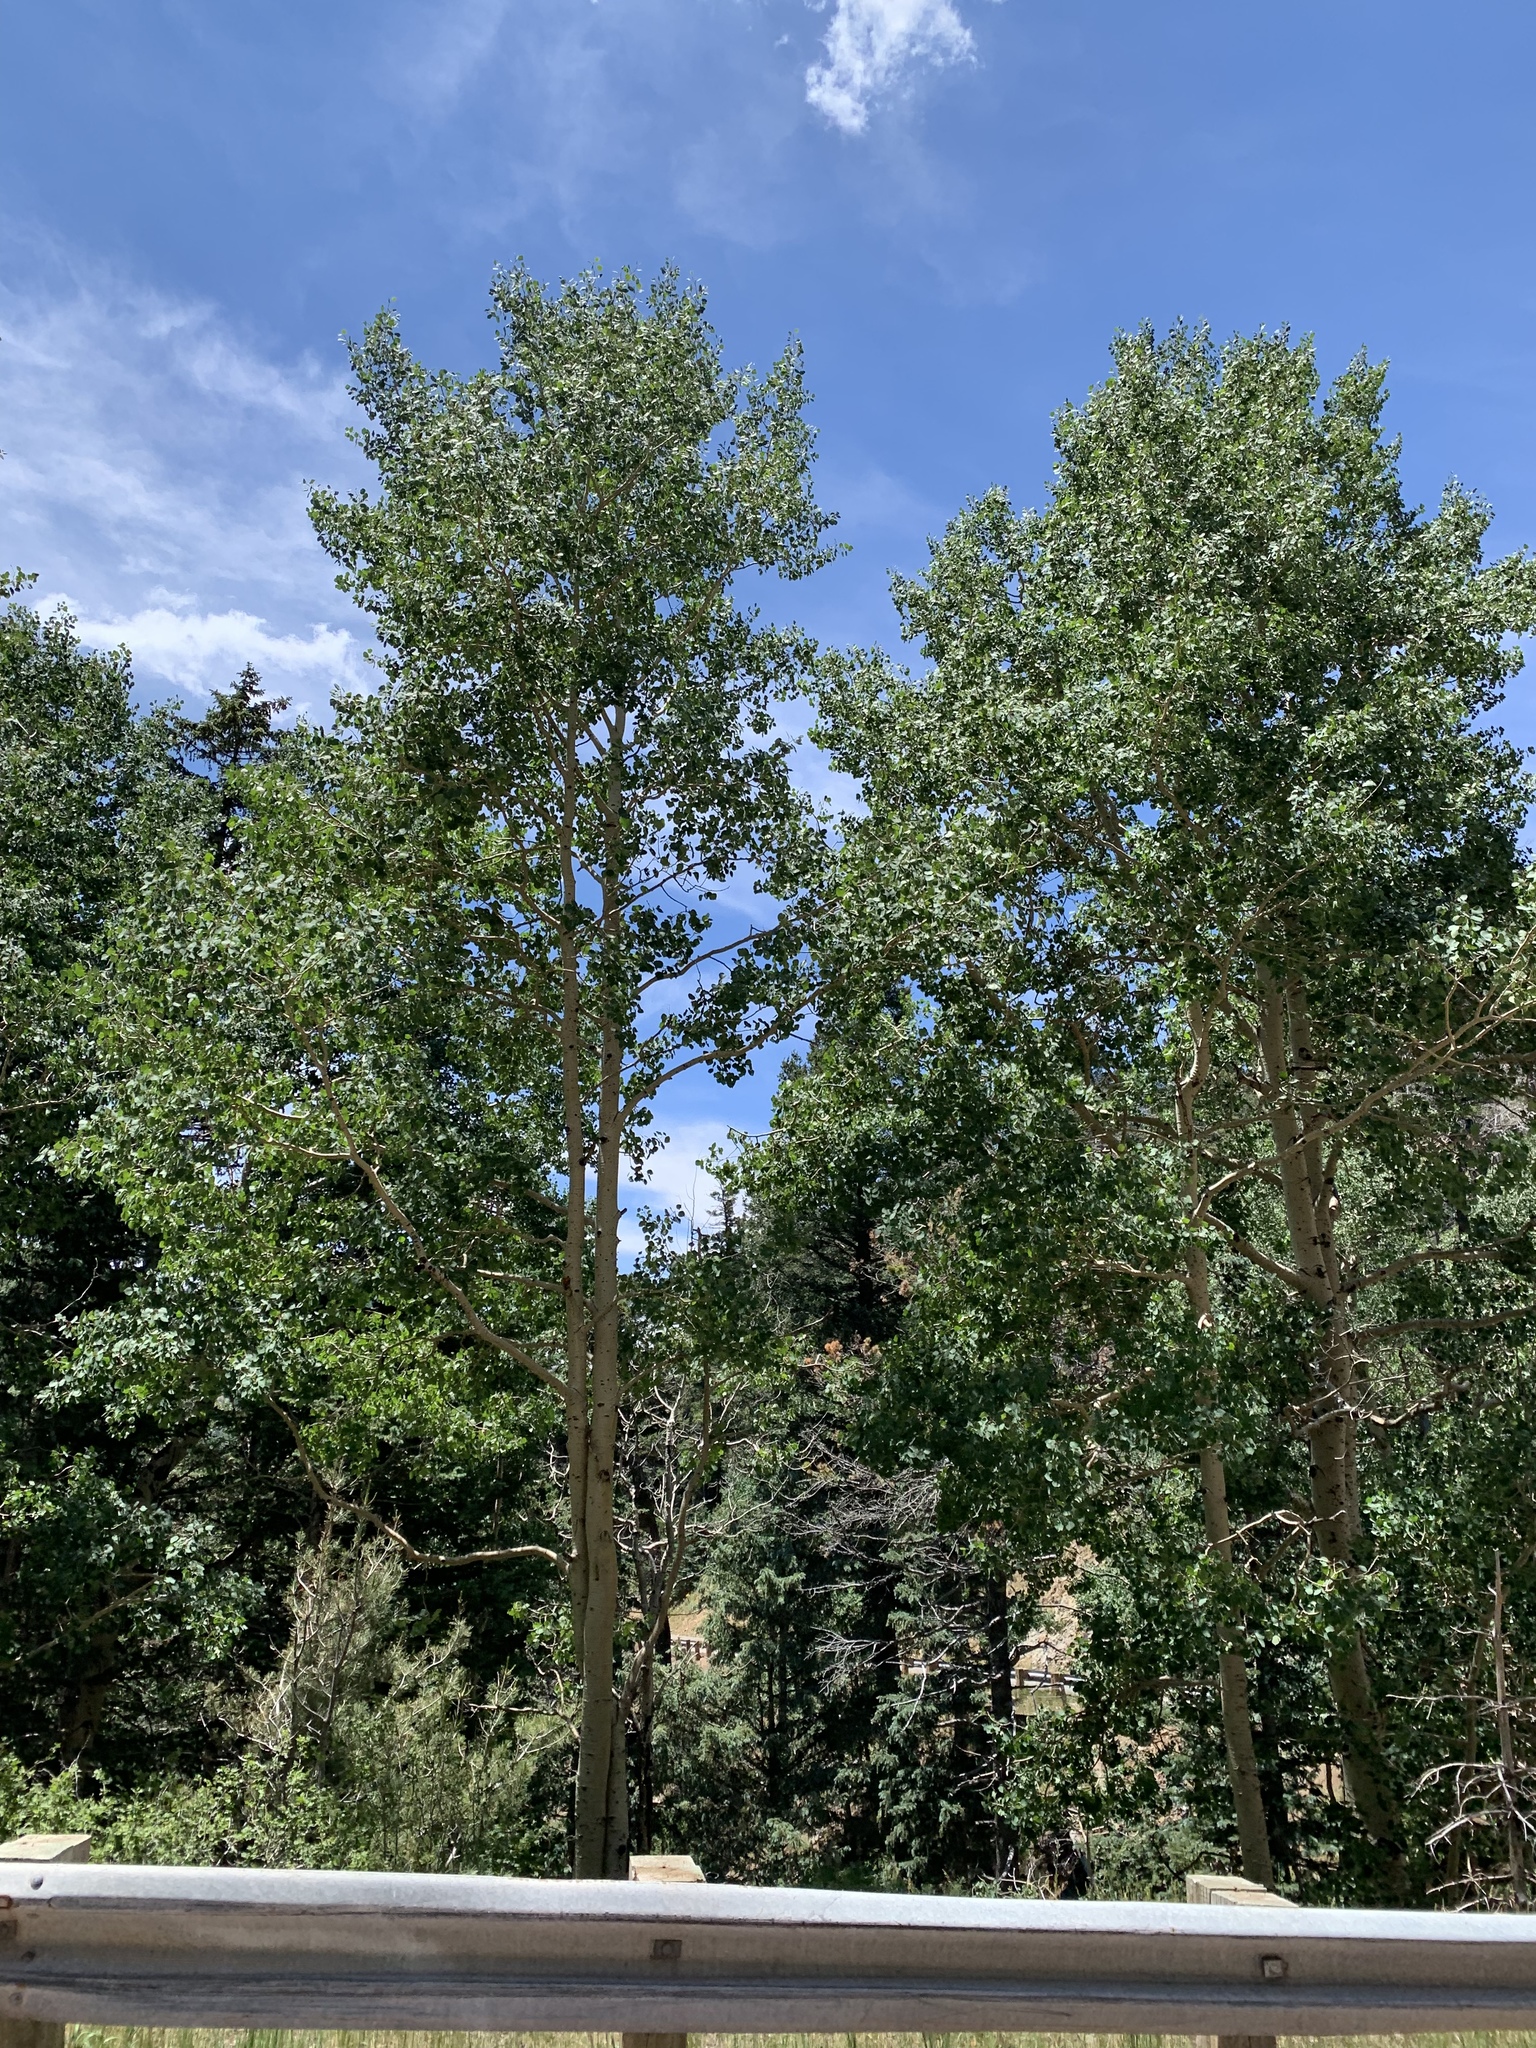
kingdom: Plantae
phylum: Tracheophyta
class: Magnoliopsida
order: Malpighiales
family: Salicaceae
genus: Populus
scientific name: Populus tremuloides
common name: Quaking aspen
